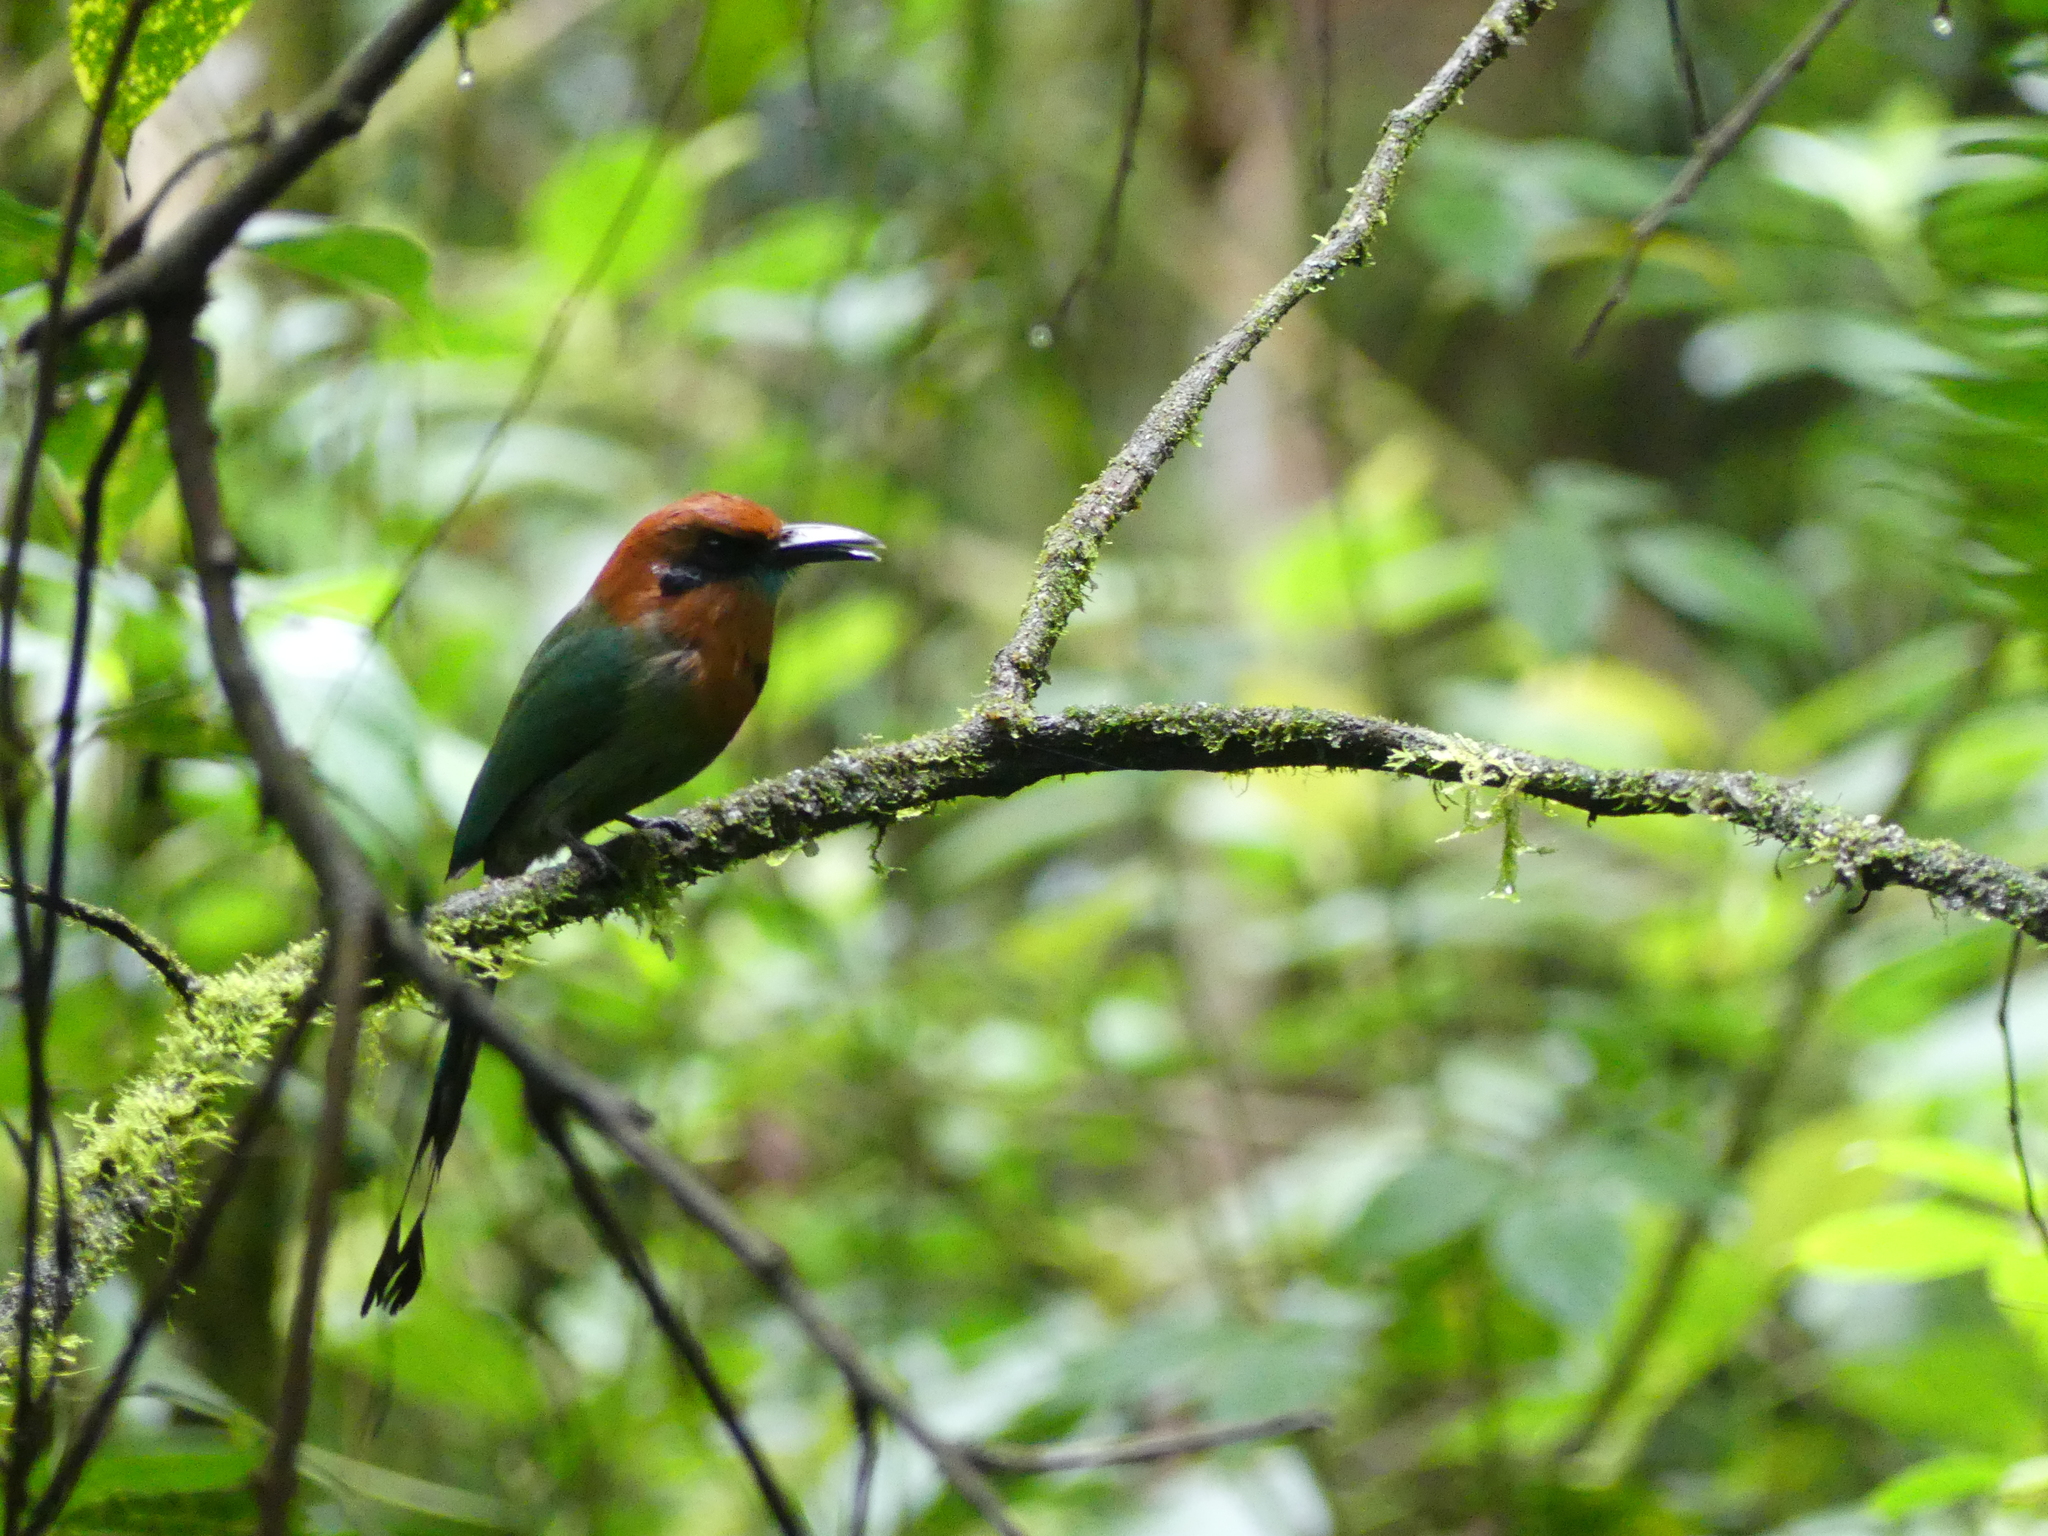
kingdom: Animalia
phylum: Chordata
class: Aves
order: Coraciiformes
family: Momotidae
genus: Electron
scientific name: Electron platyrhynchum
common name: Broad-billed motmot
